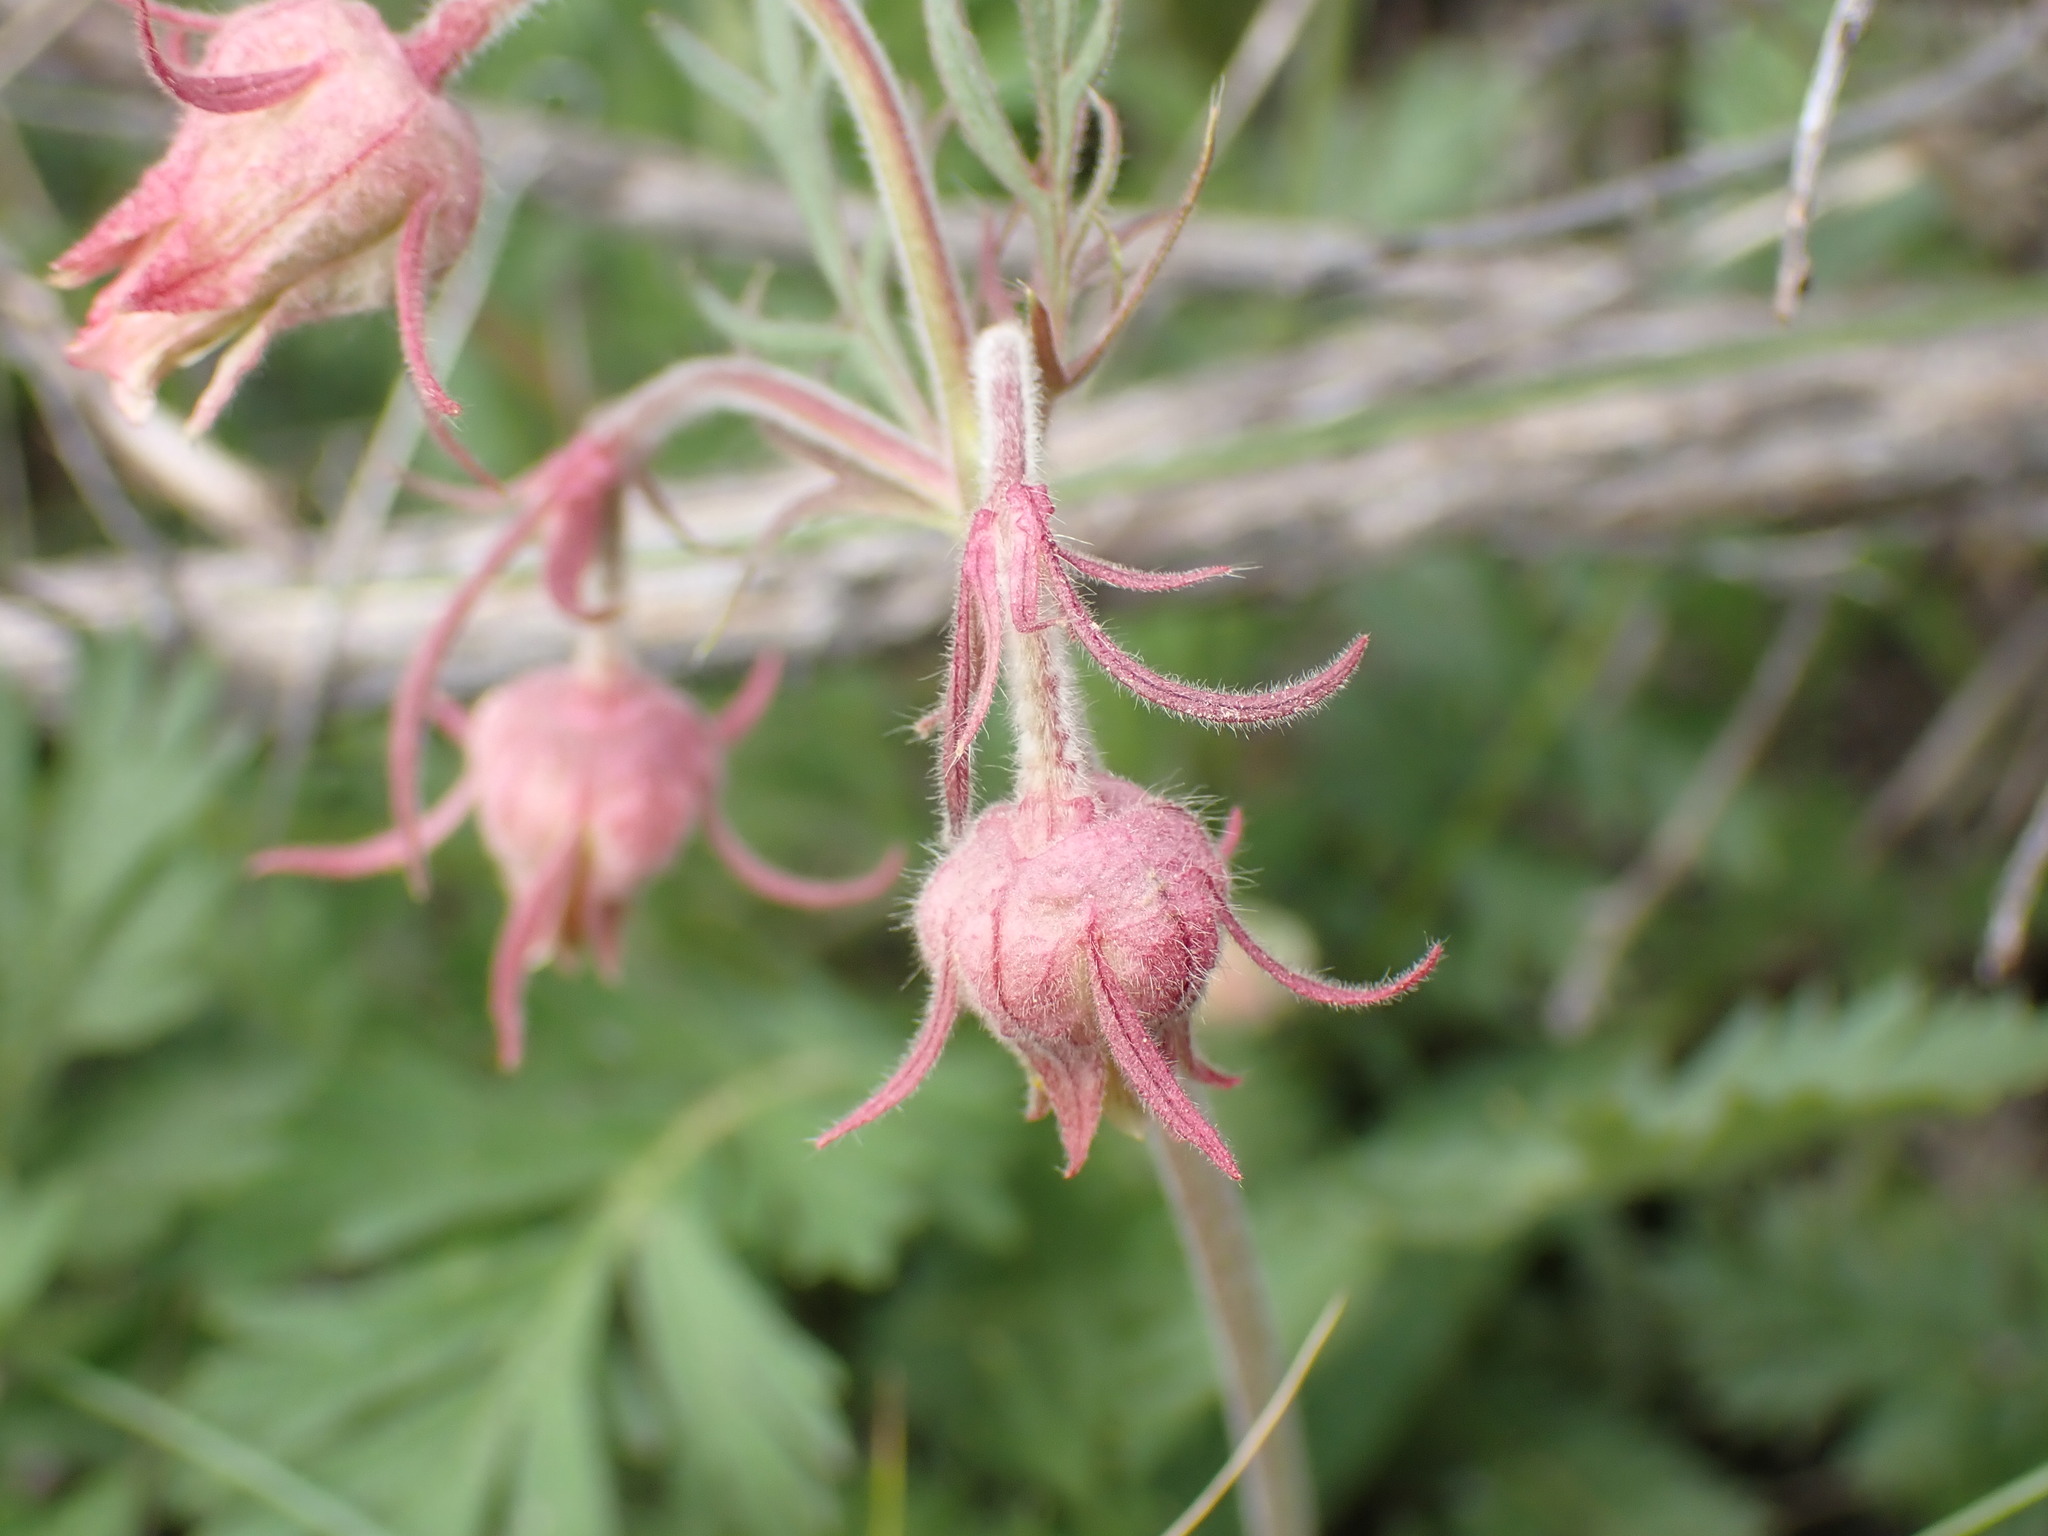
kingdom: Plantae
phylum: Tracheophyta
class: Magnoliopsida
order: Rosales
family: Rosaceae
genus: Geum
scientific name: Geum triflorum
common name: Old man's whiskers
